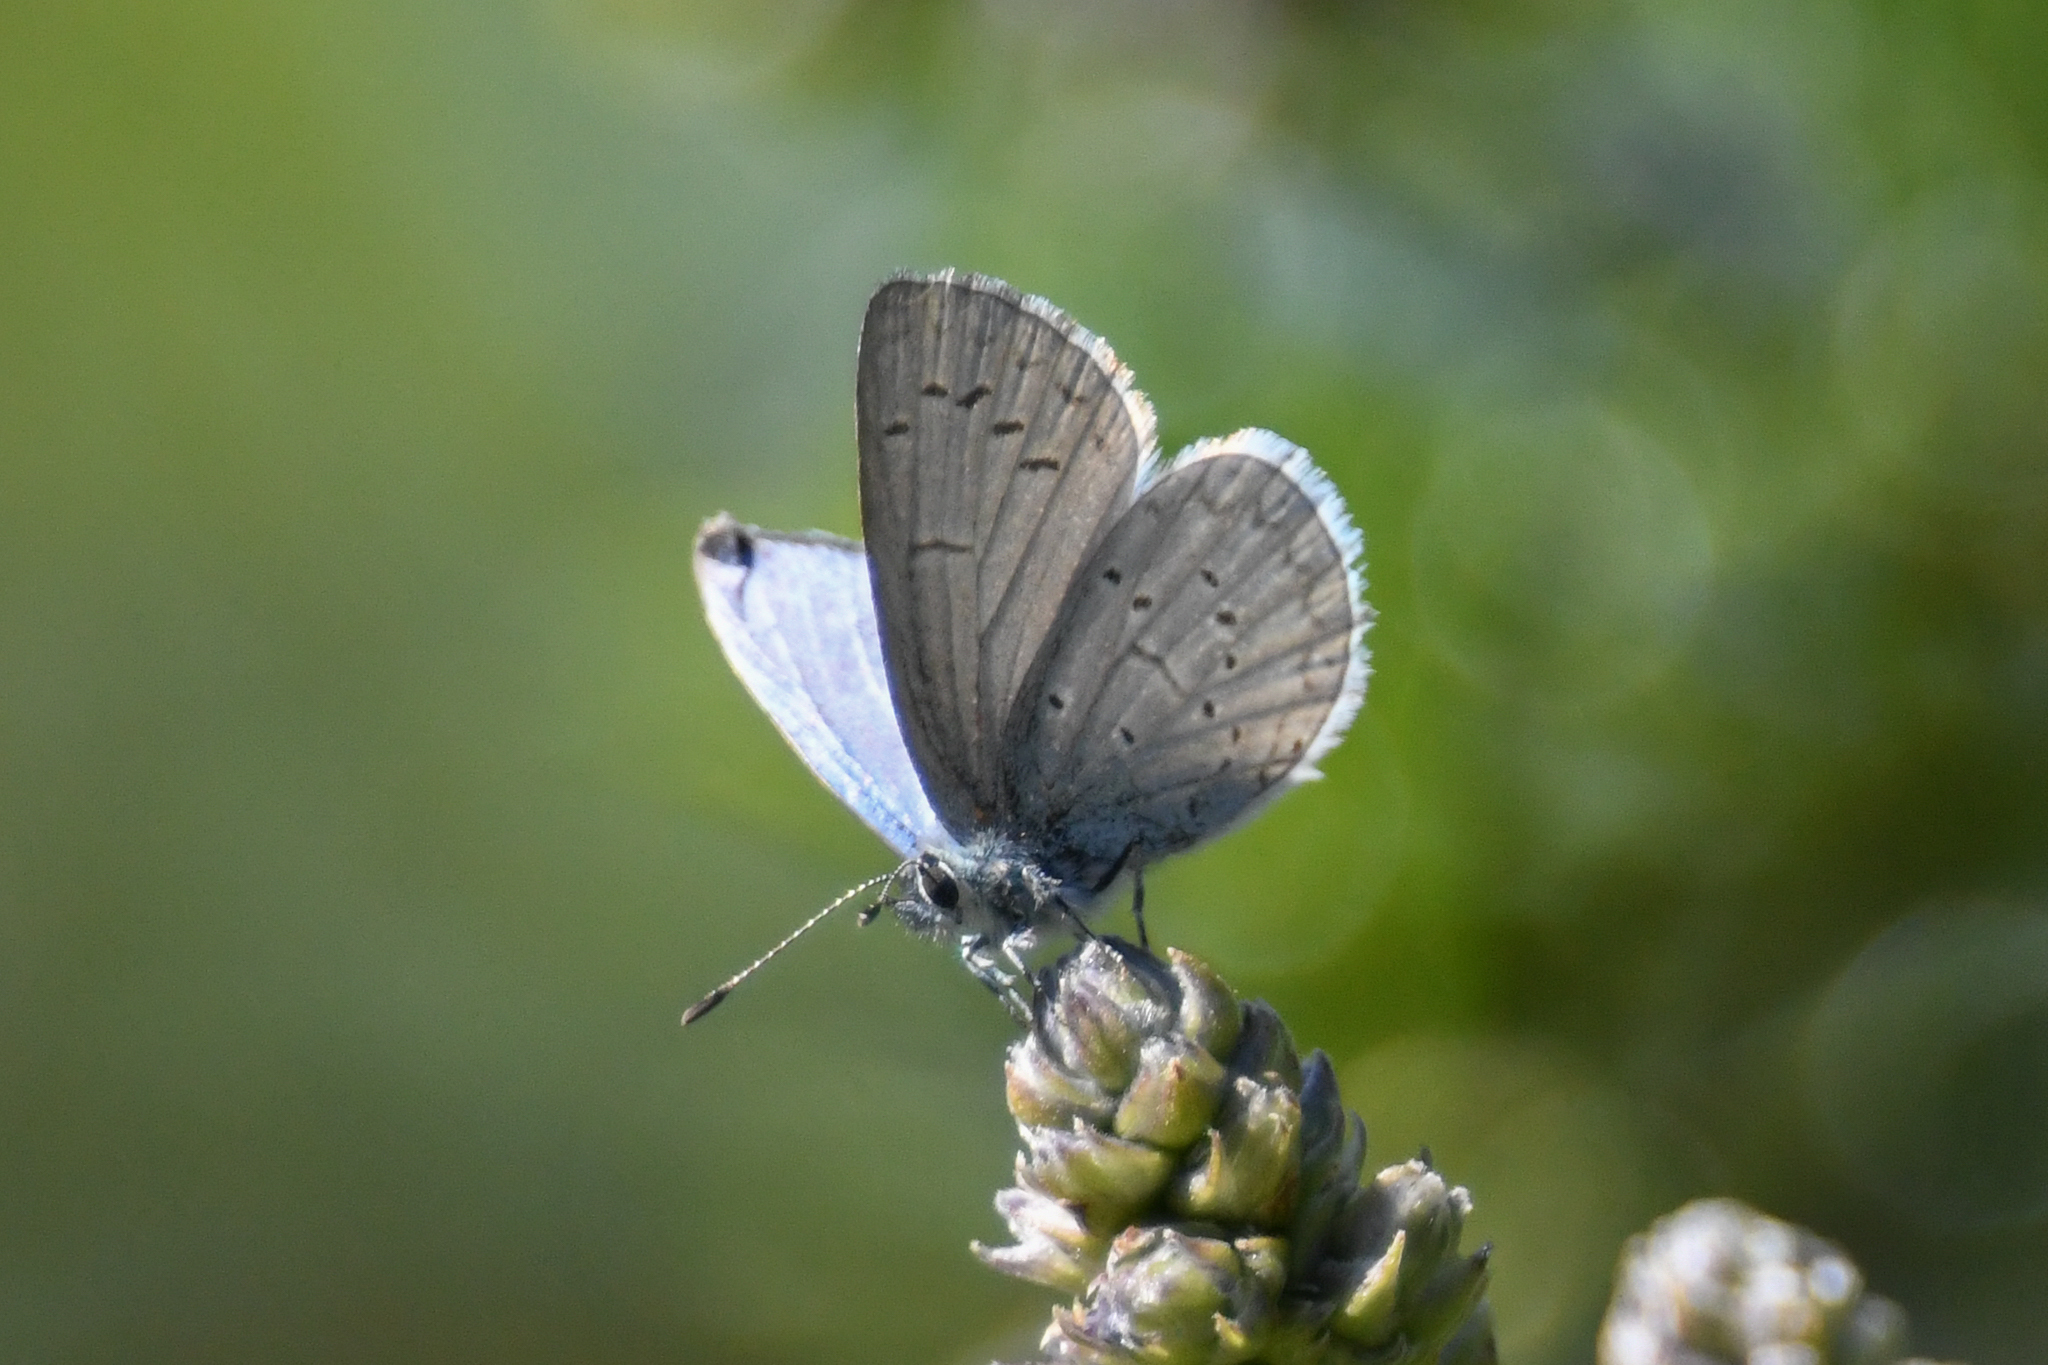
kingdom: Animalia
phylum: Arthropoda
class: Insecta
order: Lepidoptera
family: Lycaenidae
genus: Celastrina
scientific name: Celastrina ladon
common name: Spring azure
